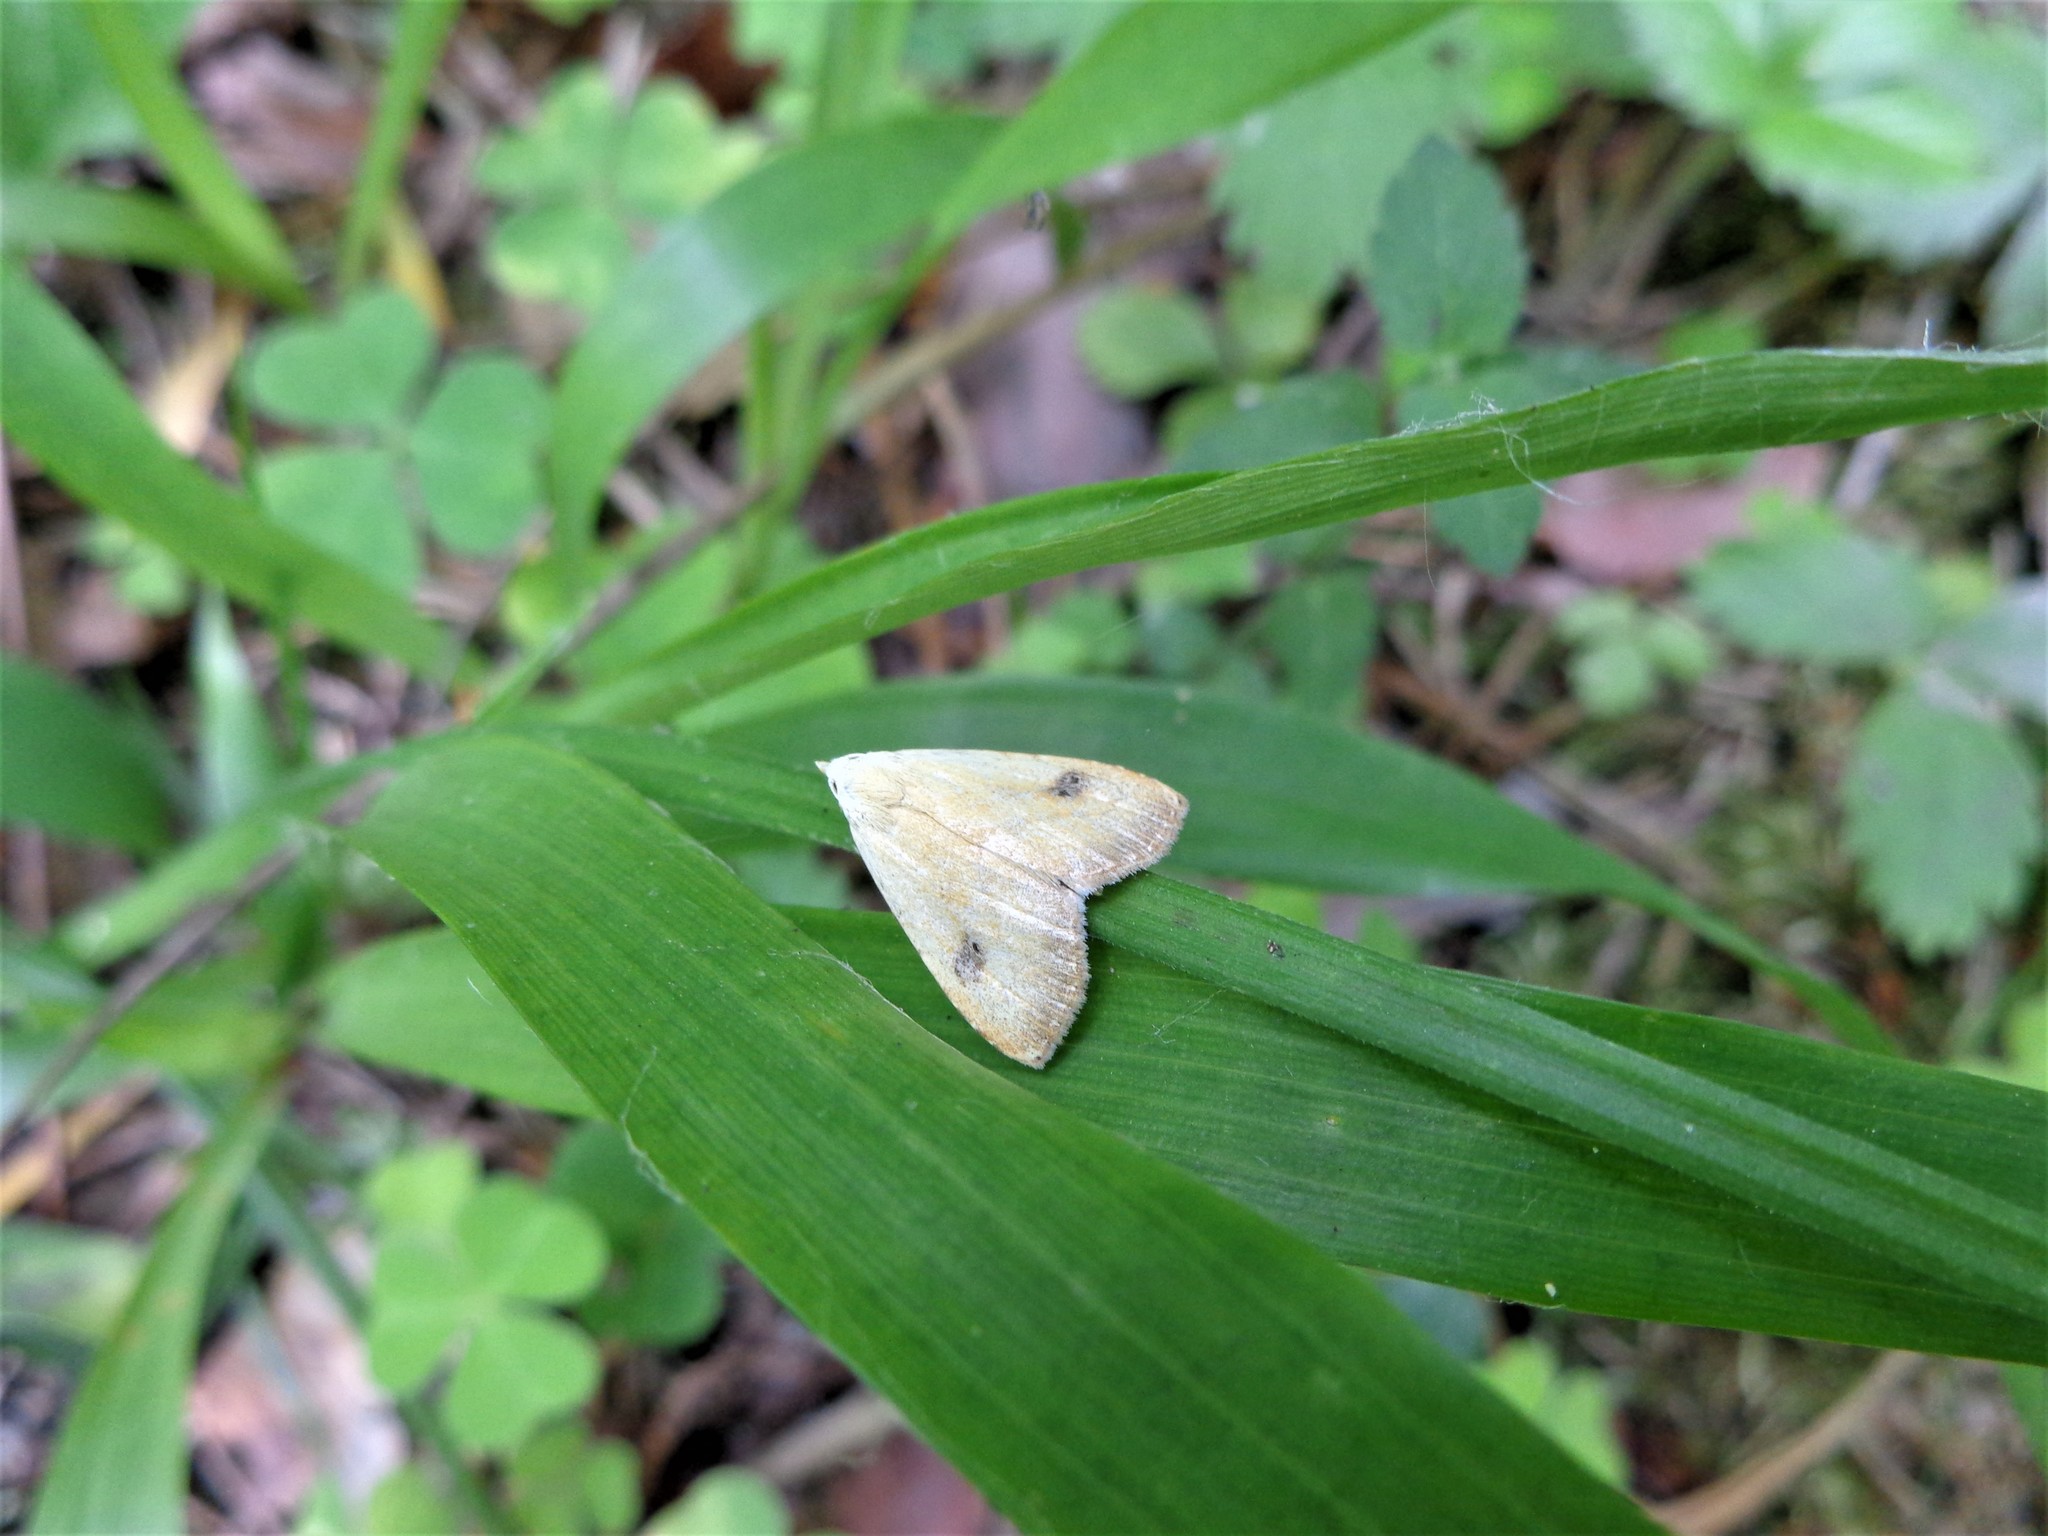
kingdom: Animalia
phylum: Arthropoda
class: Insecta
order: Lepidoptera
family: Erebidae
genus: Rivula
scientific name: Rivula sericealis
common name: Straw dot
